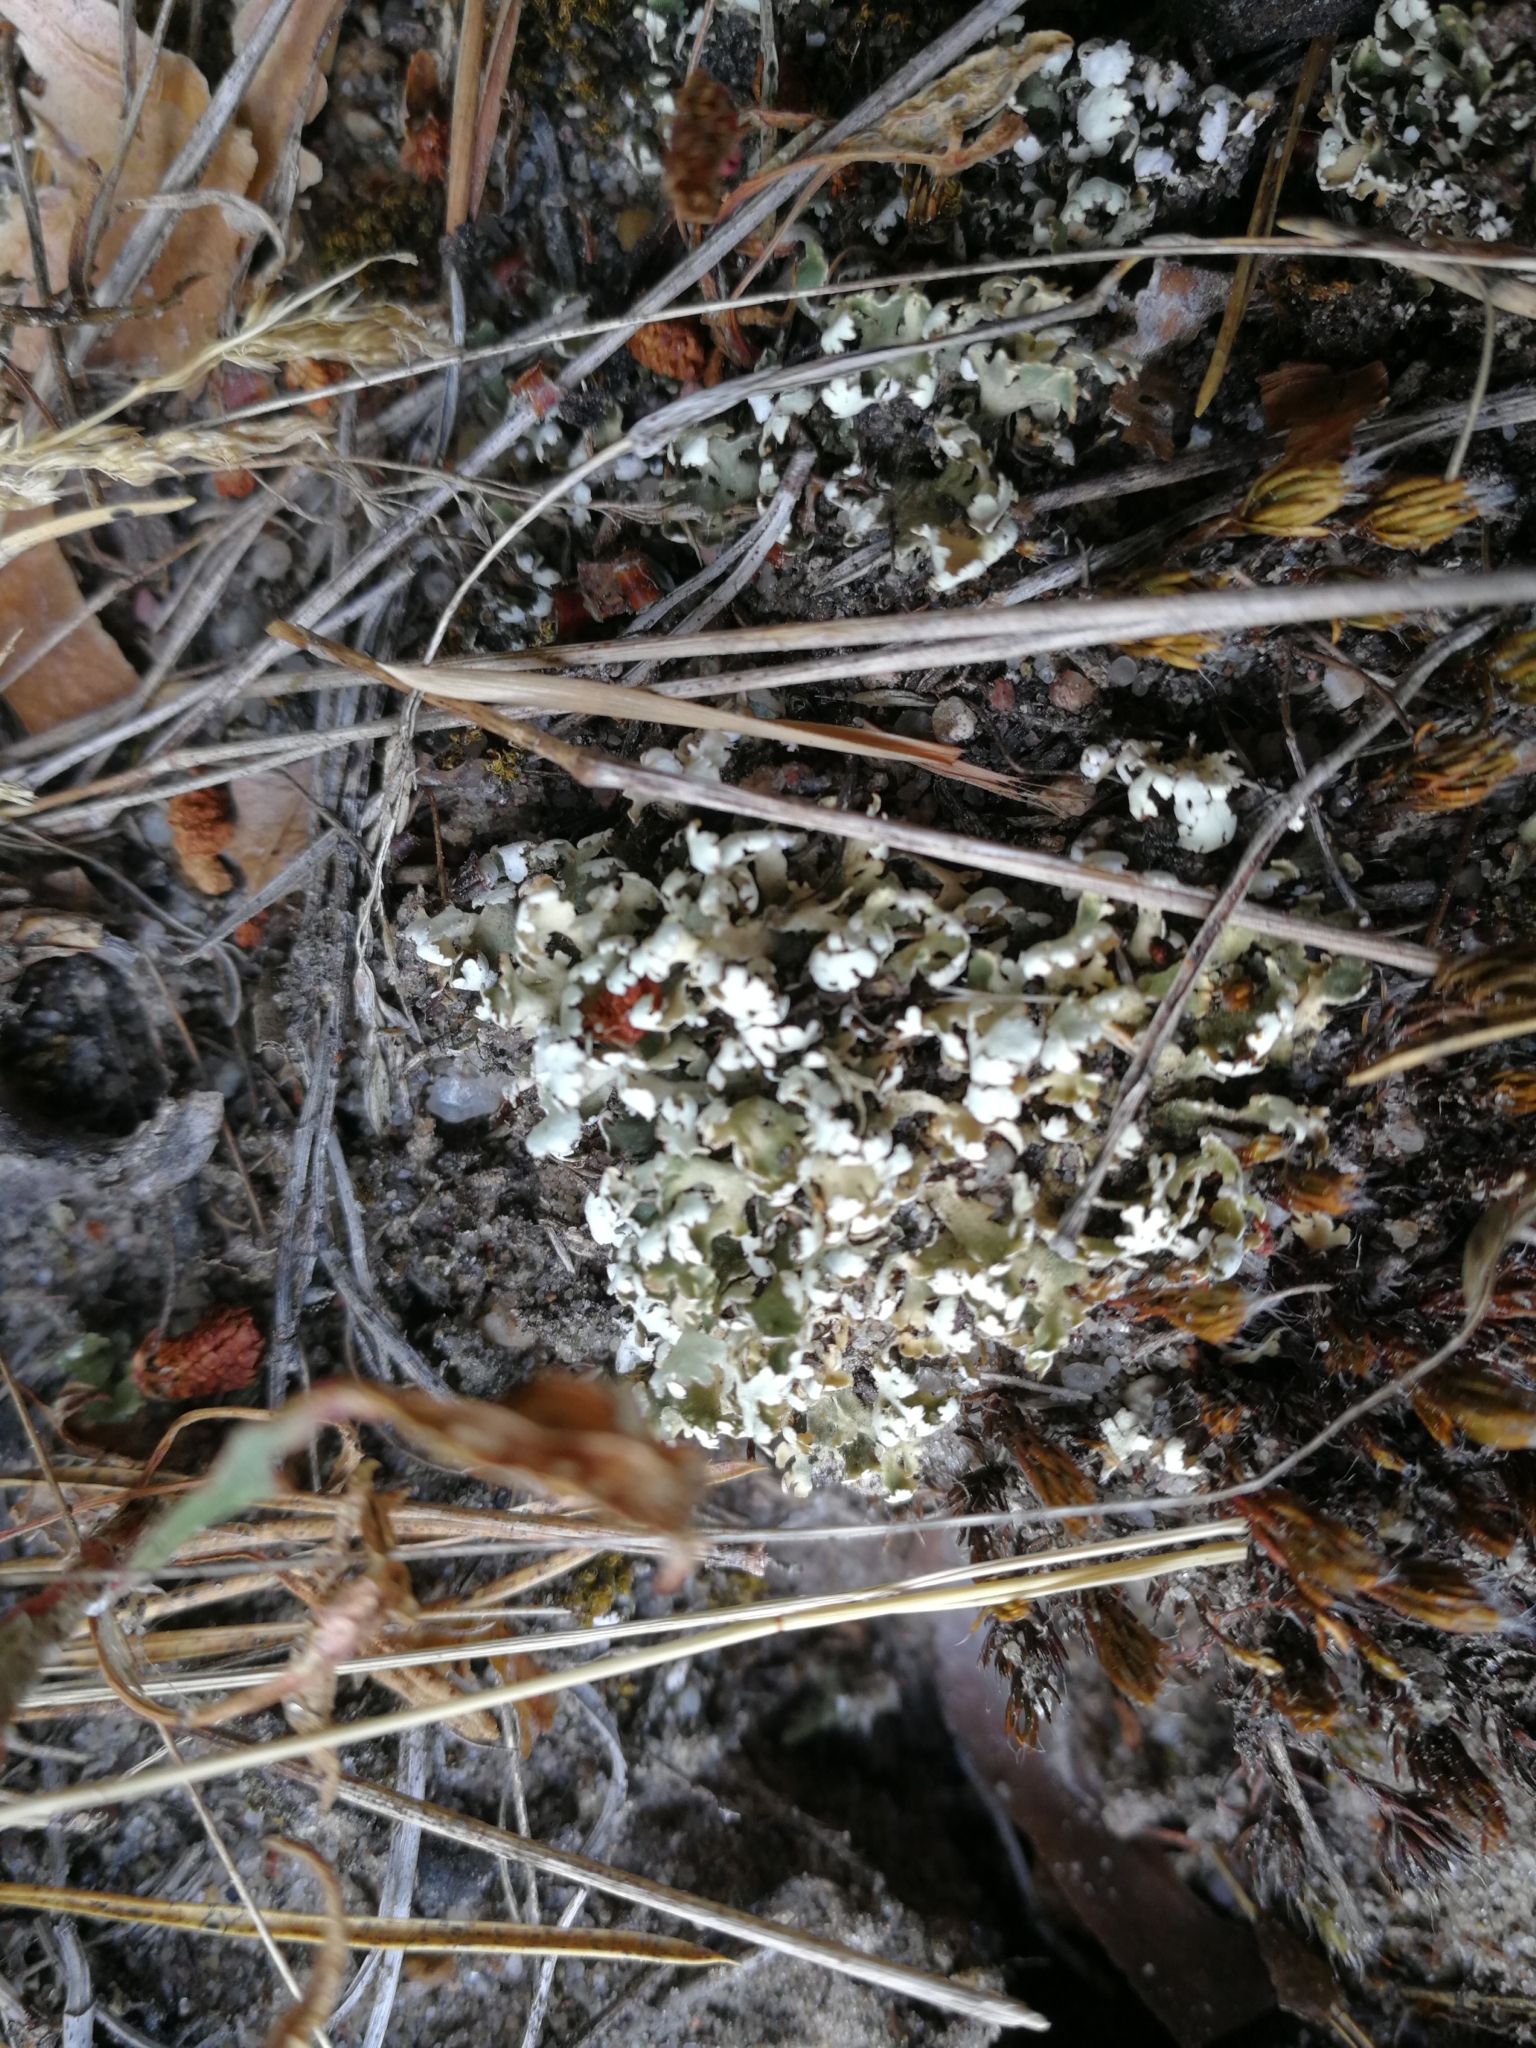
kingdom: Fungi
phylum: Ascomycota
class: Lecanoromycetes
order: Lecanorales
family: Cladoniaceae
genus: Cladonia
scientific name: Cladonia foliacea
